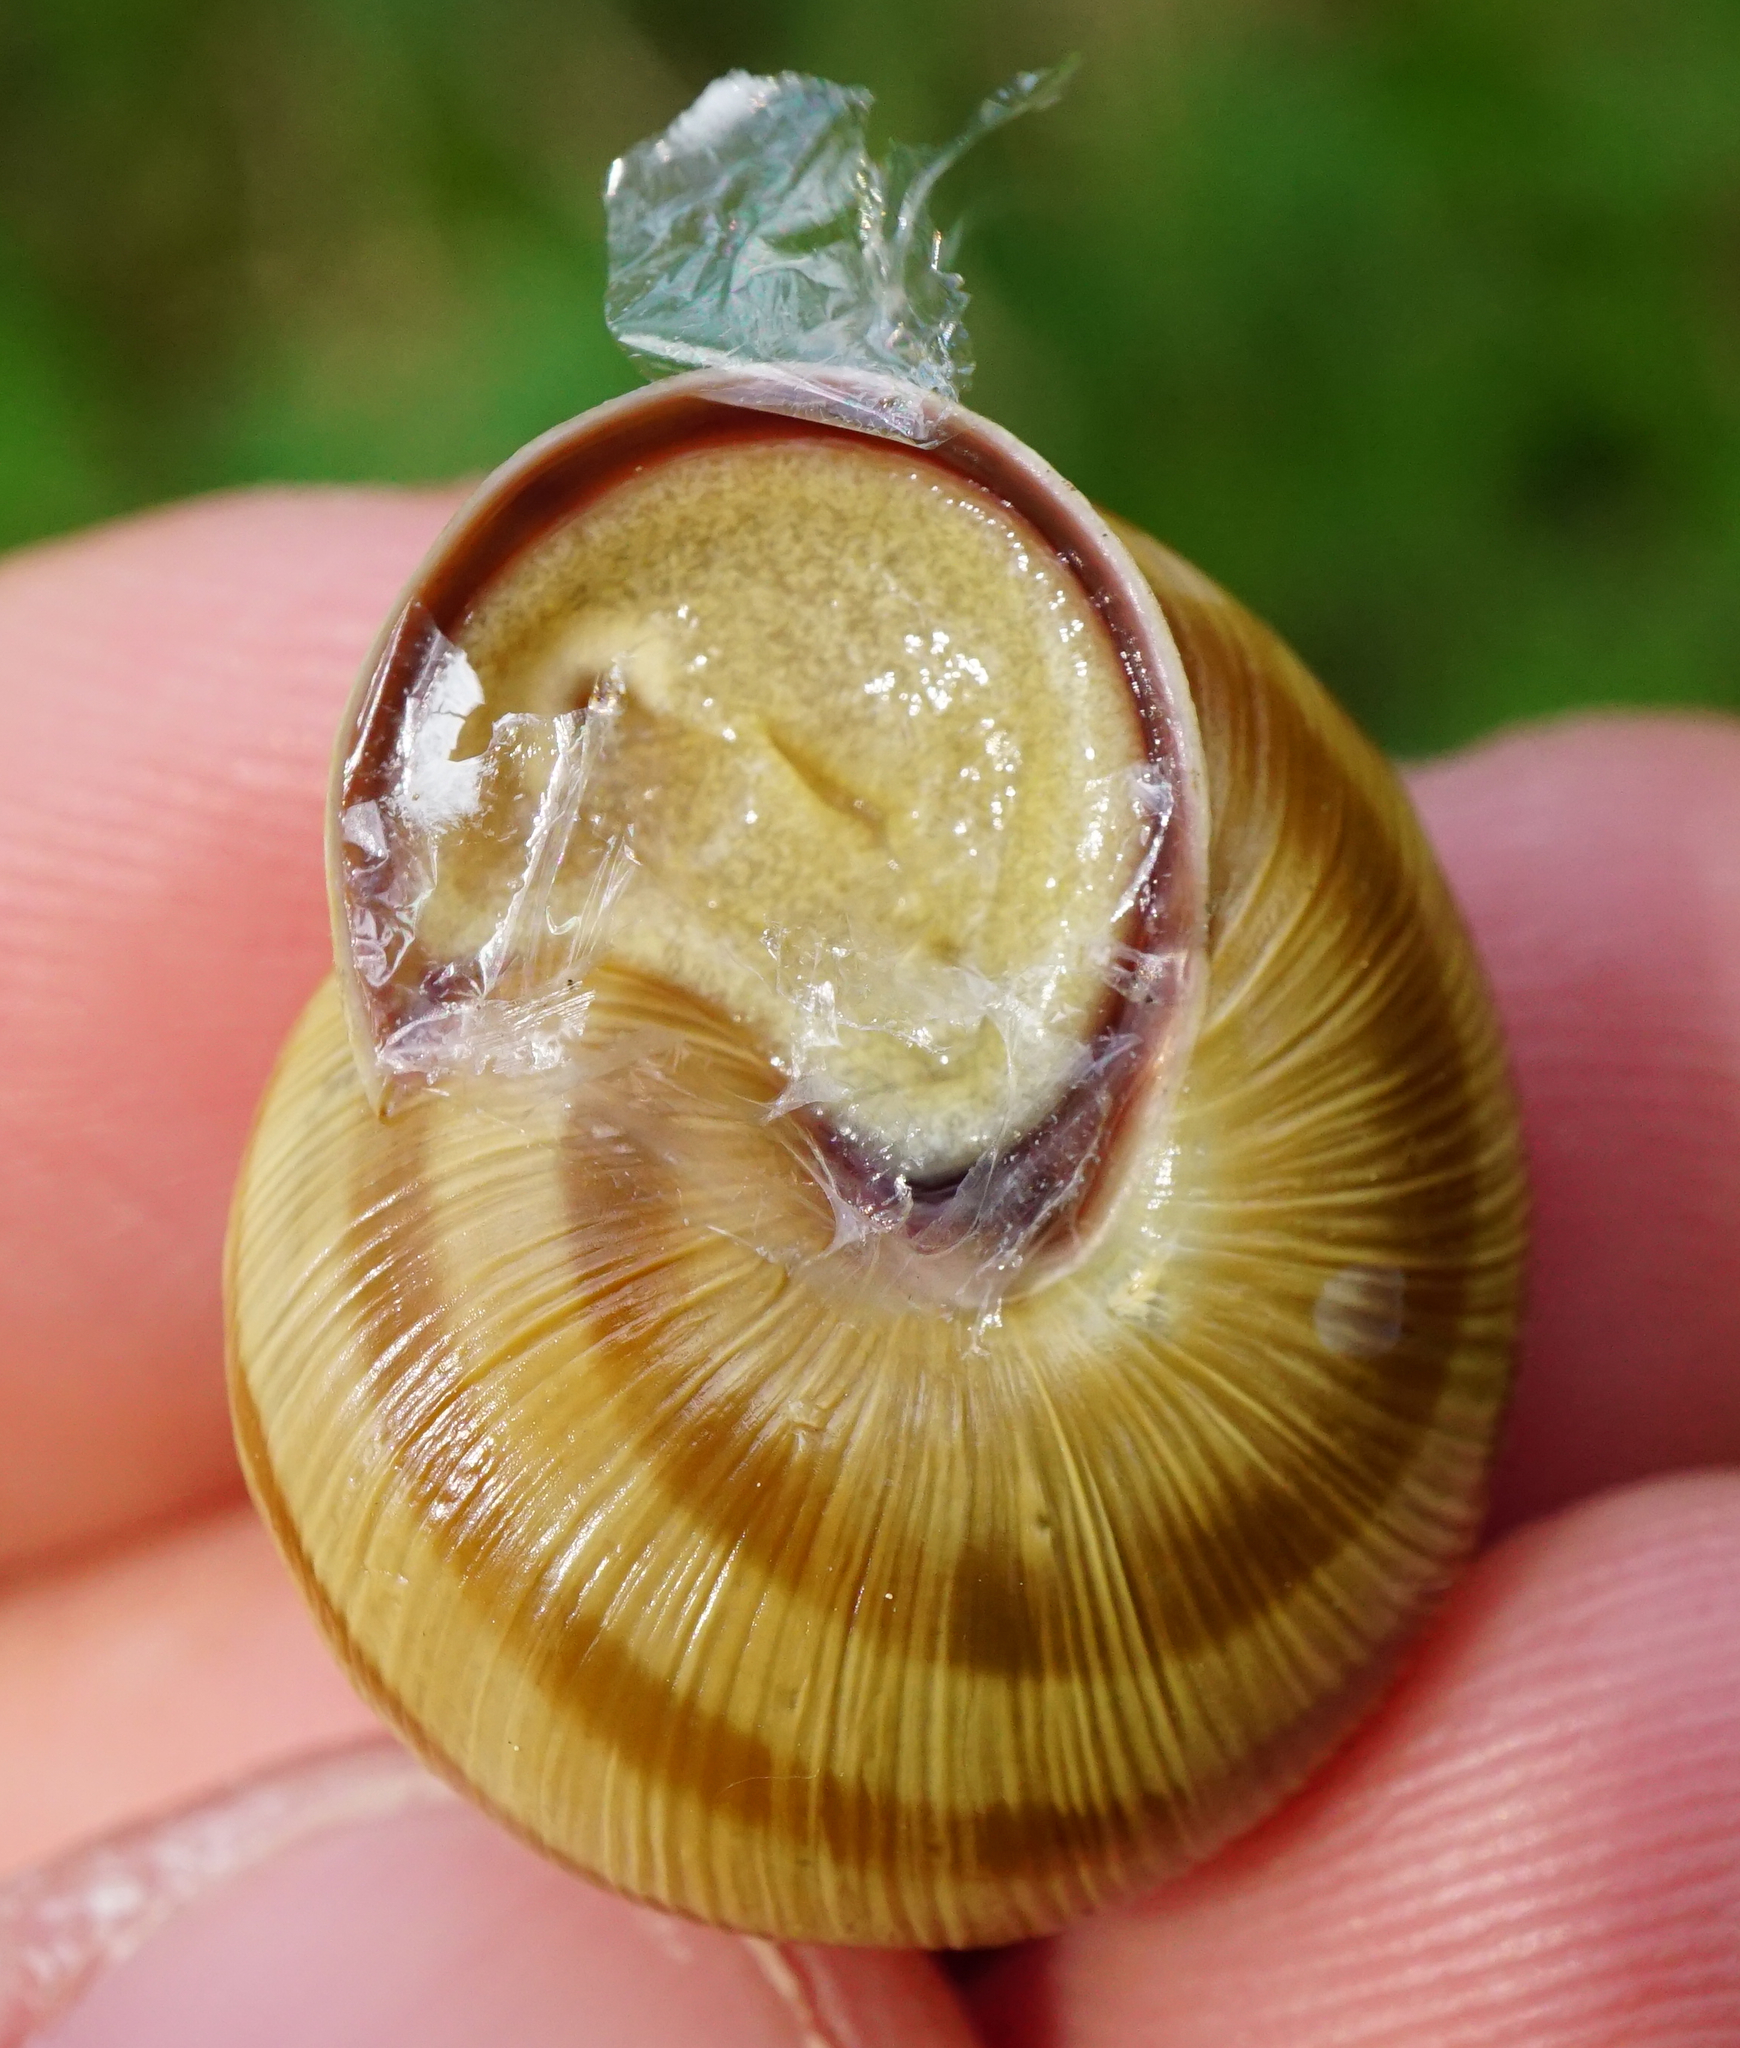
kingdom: Animalia
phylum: Mollusca
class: Gastropoda
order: Stylommatophora
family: Helicidae
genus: Caucasotachea
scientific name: Caucasotachea vindobonensis
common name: European helicid land snail
